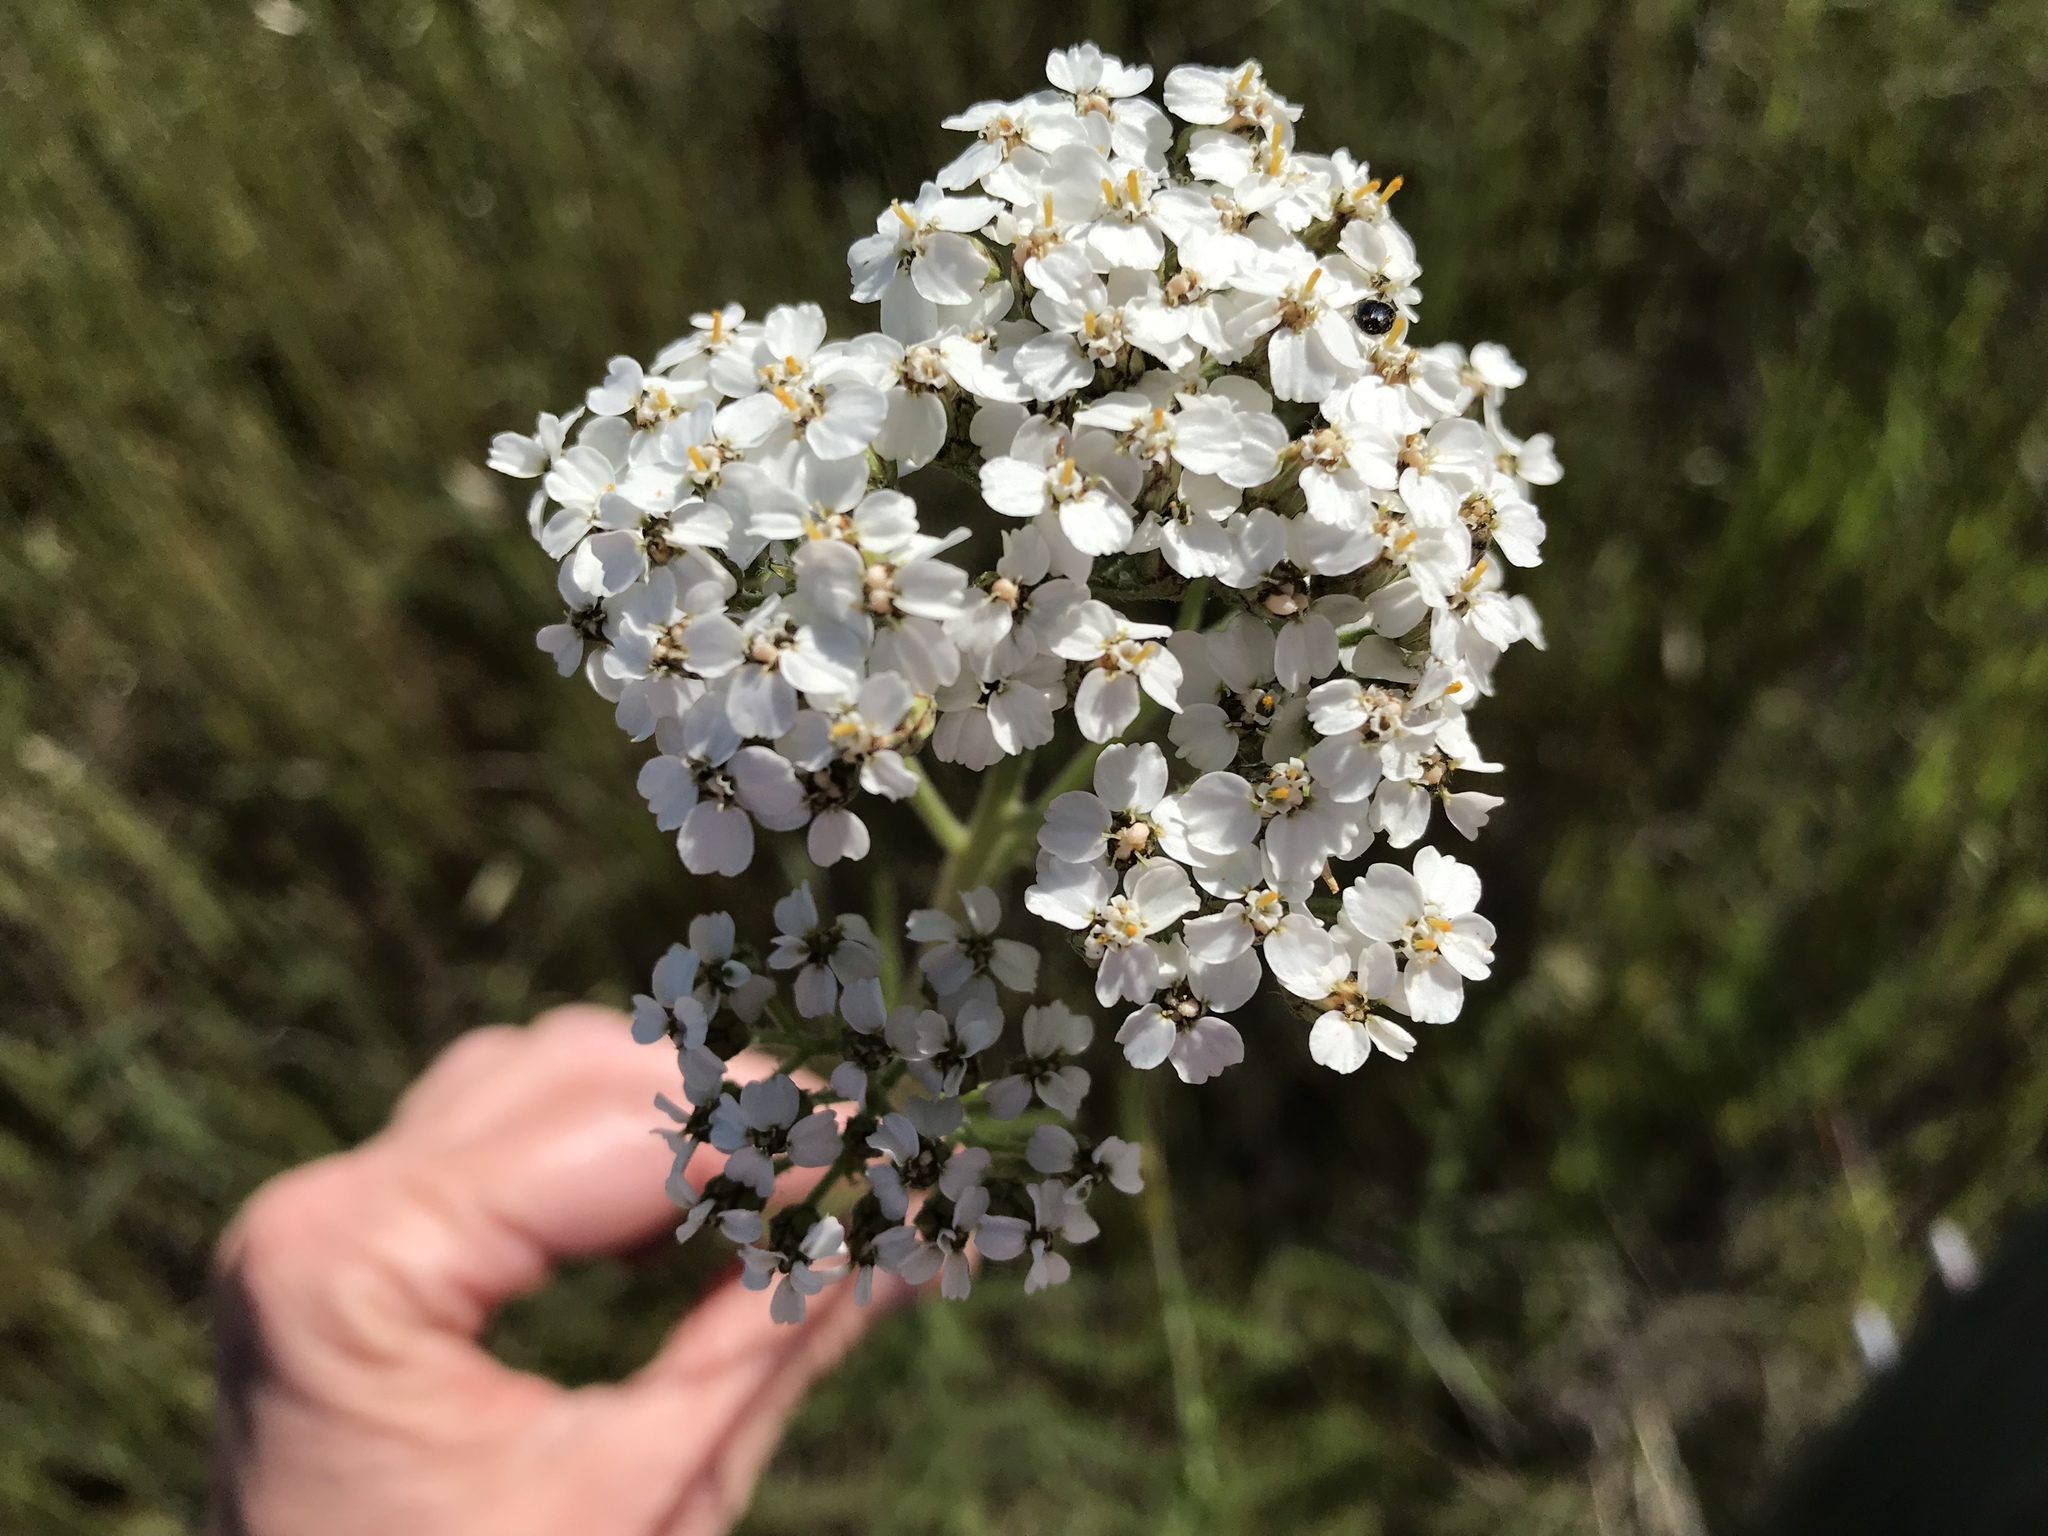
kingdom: Plantae
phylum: Tracheophyta
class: Magnoliopsida
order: Asterales
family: Asteraceae
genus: Achillea
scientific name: Achillea millefolium
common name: Yarrow
